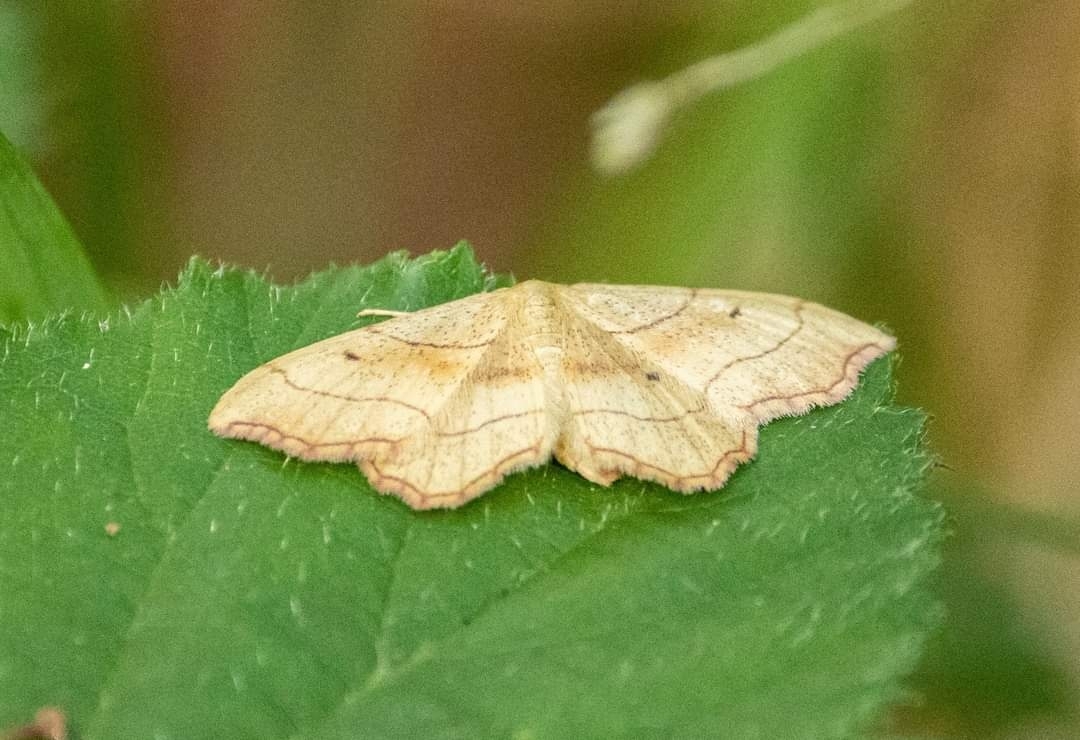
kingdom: Animalia
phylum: Arthropoda
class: Insecta
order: Lepidoptera
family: Geometridae
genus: Idaea
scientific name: Idaea emarginata
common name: Small scallop
